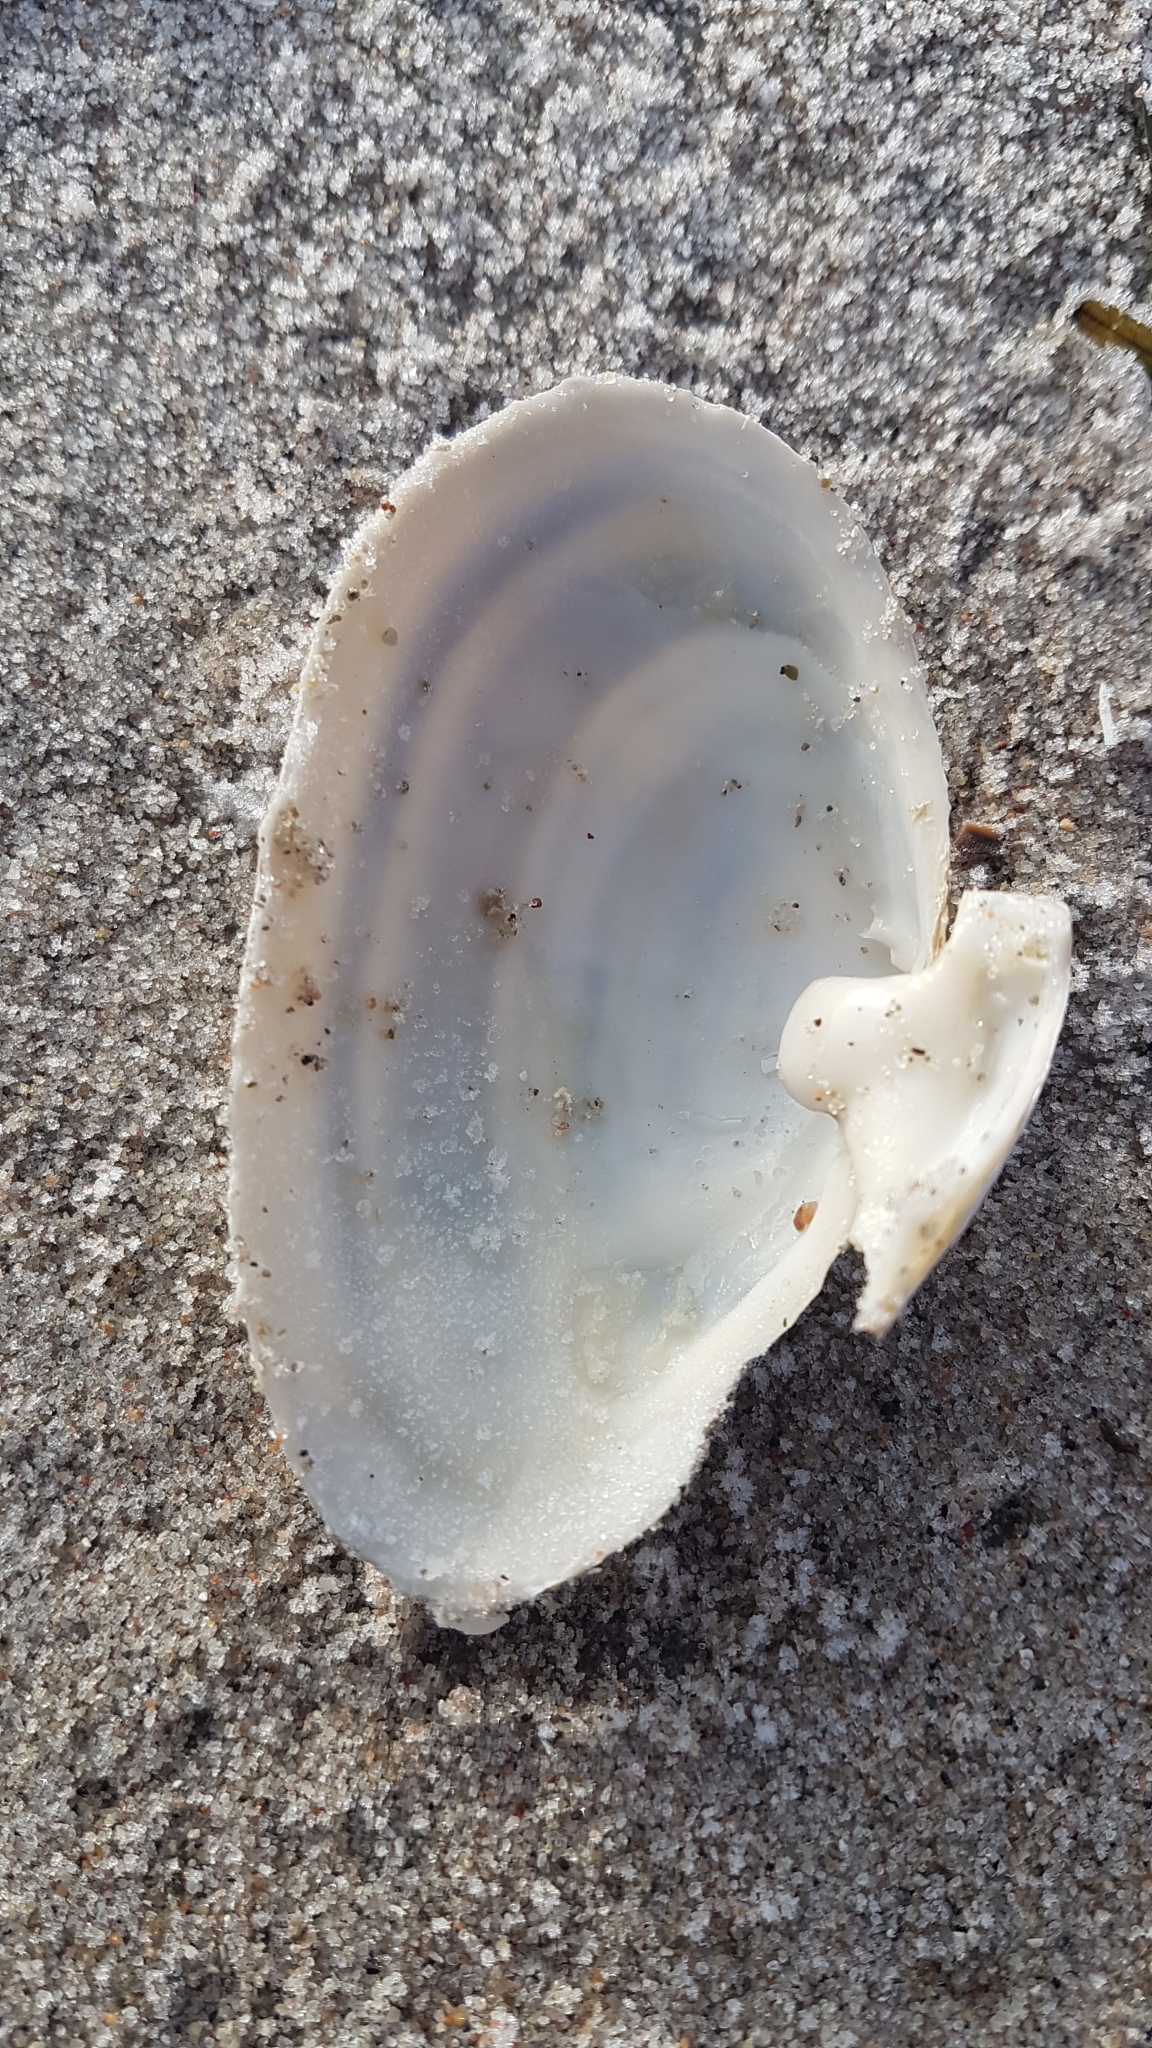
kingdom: Animalia
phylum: Mollusca
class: Bivalvia
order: Myida
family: Myidae
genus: Mya
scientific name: Mya arenaria
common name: Soft-shelled clam
